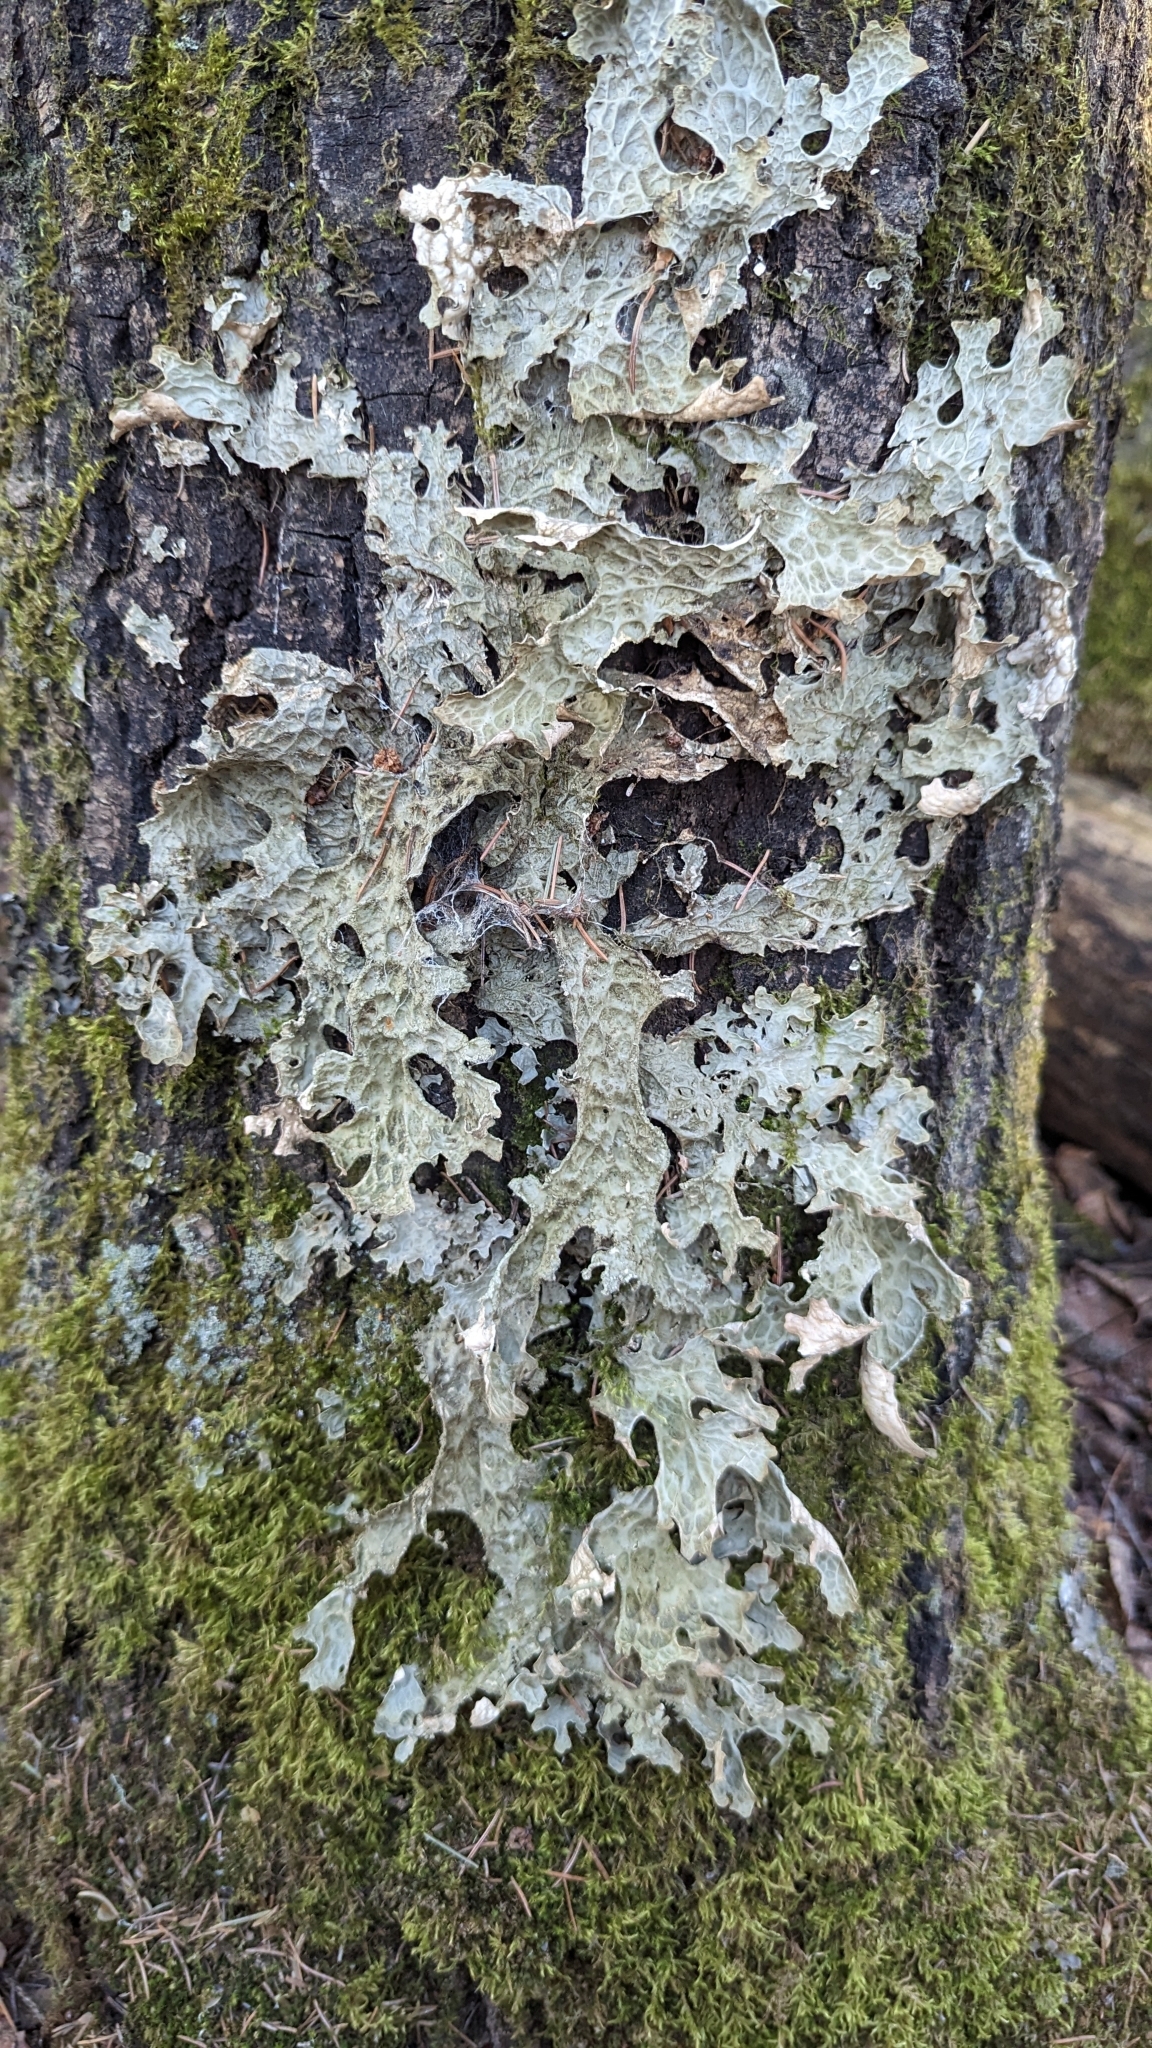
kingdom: Fungi
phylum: Ascomycota
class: Lecanoromycetes
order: Peltigerales
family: Lobariaceae
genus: Lobaria
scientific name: Lobaria pulmonaria
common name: Lungwort
